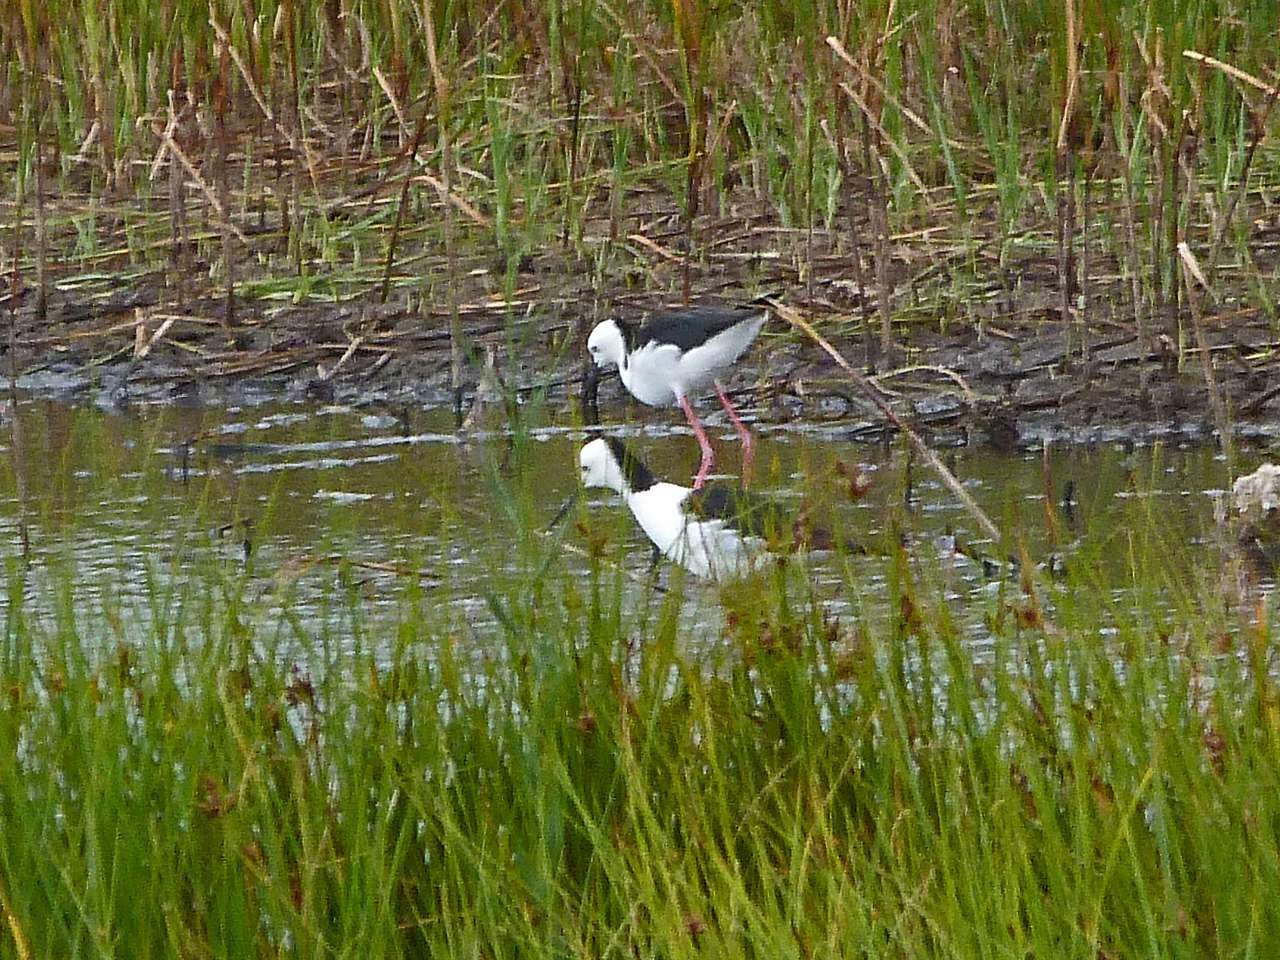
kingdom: Animalia
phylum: Chordata
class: Aves
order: Charadriiformes
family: Recurvirostridae
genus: Himantopus
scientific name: Himantopus leucocephalus
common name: White-headed stilt
